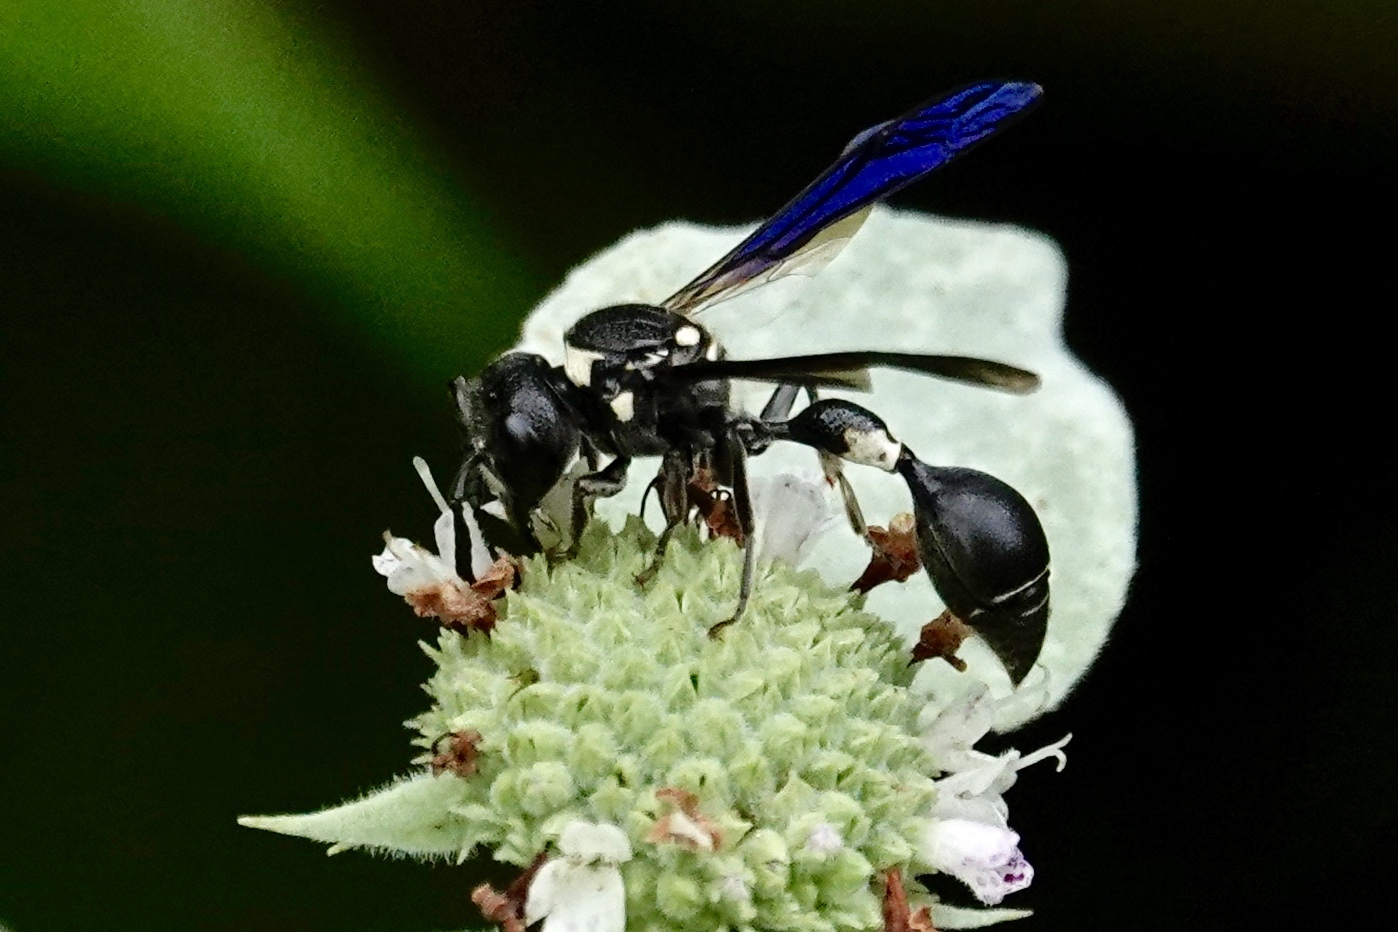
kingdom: Animalia
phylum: Arthropoda
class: Insecta
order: Hymenoptera
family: Eumenidae
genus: Zethus
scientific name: Zethus spinipes
